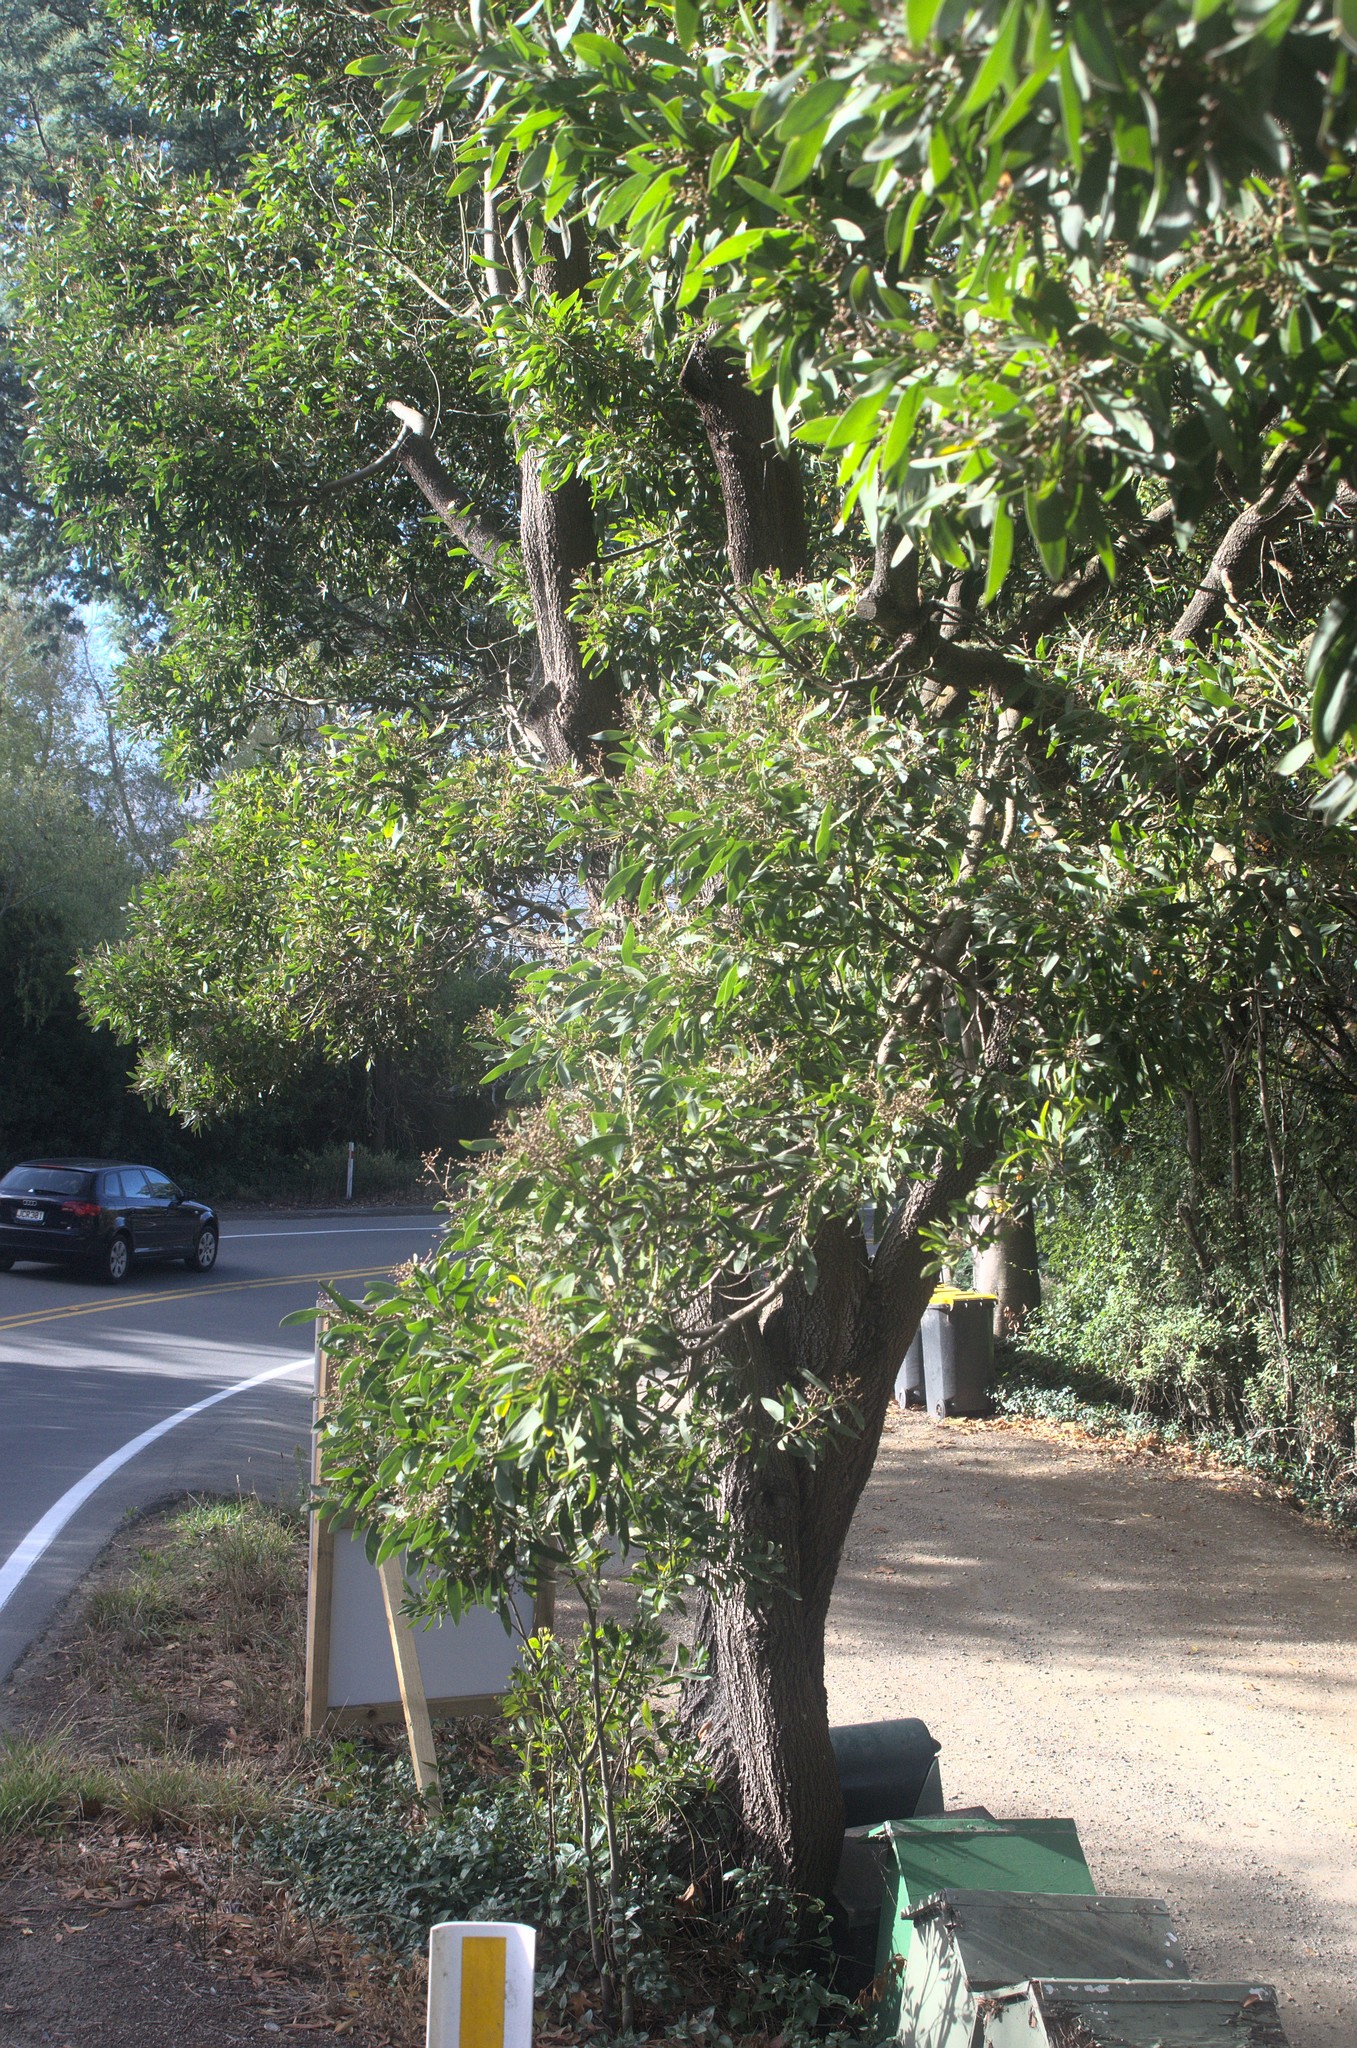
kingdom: Plantae
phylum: Tracheophyta
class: Magnoliopsida
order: Fabales
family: Fabaceae
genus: Acacia
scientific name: Acacia melanoxylon
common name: Blackwood
